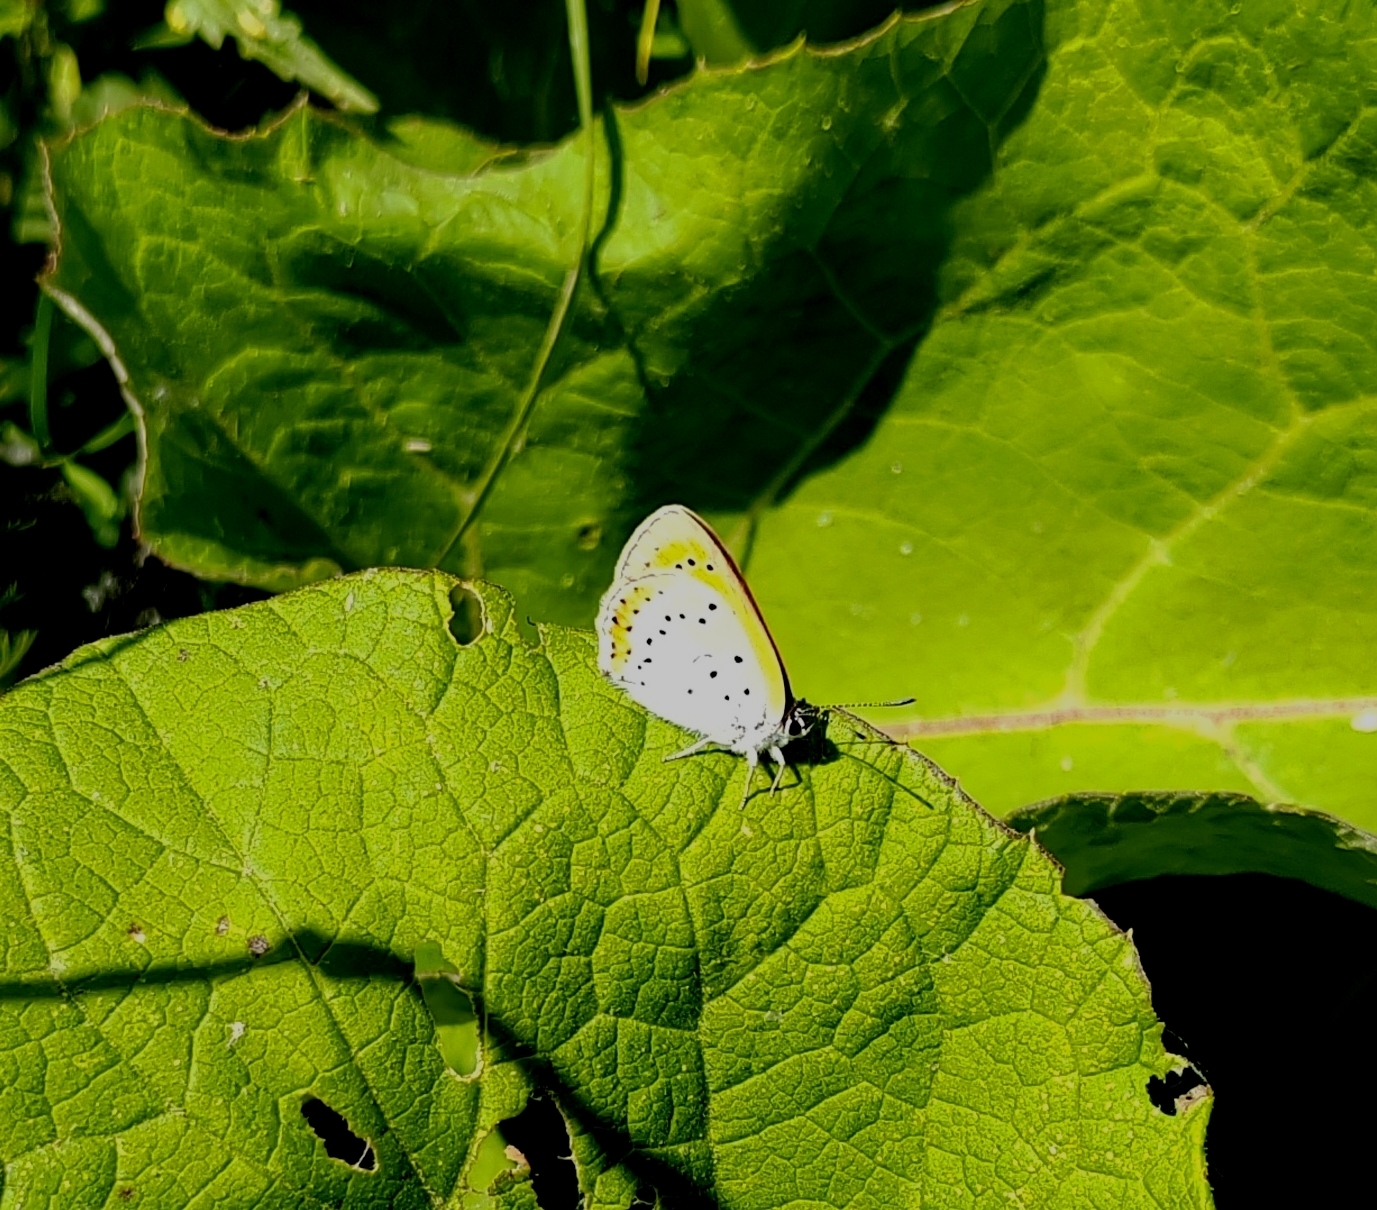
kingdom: Animalia
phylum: Arthropoda
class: Insecta
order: Lepidoptera
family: Lycaenidae
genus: Lycaena
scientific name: Lycaena dispar
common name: Large copper
